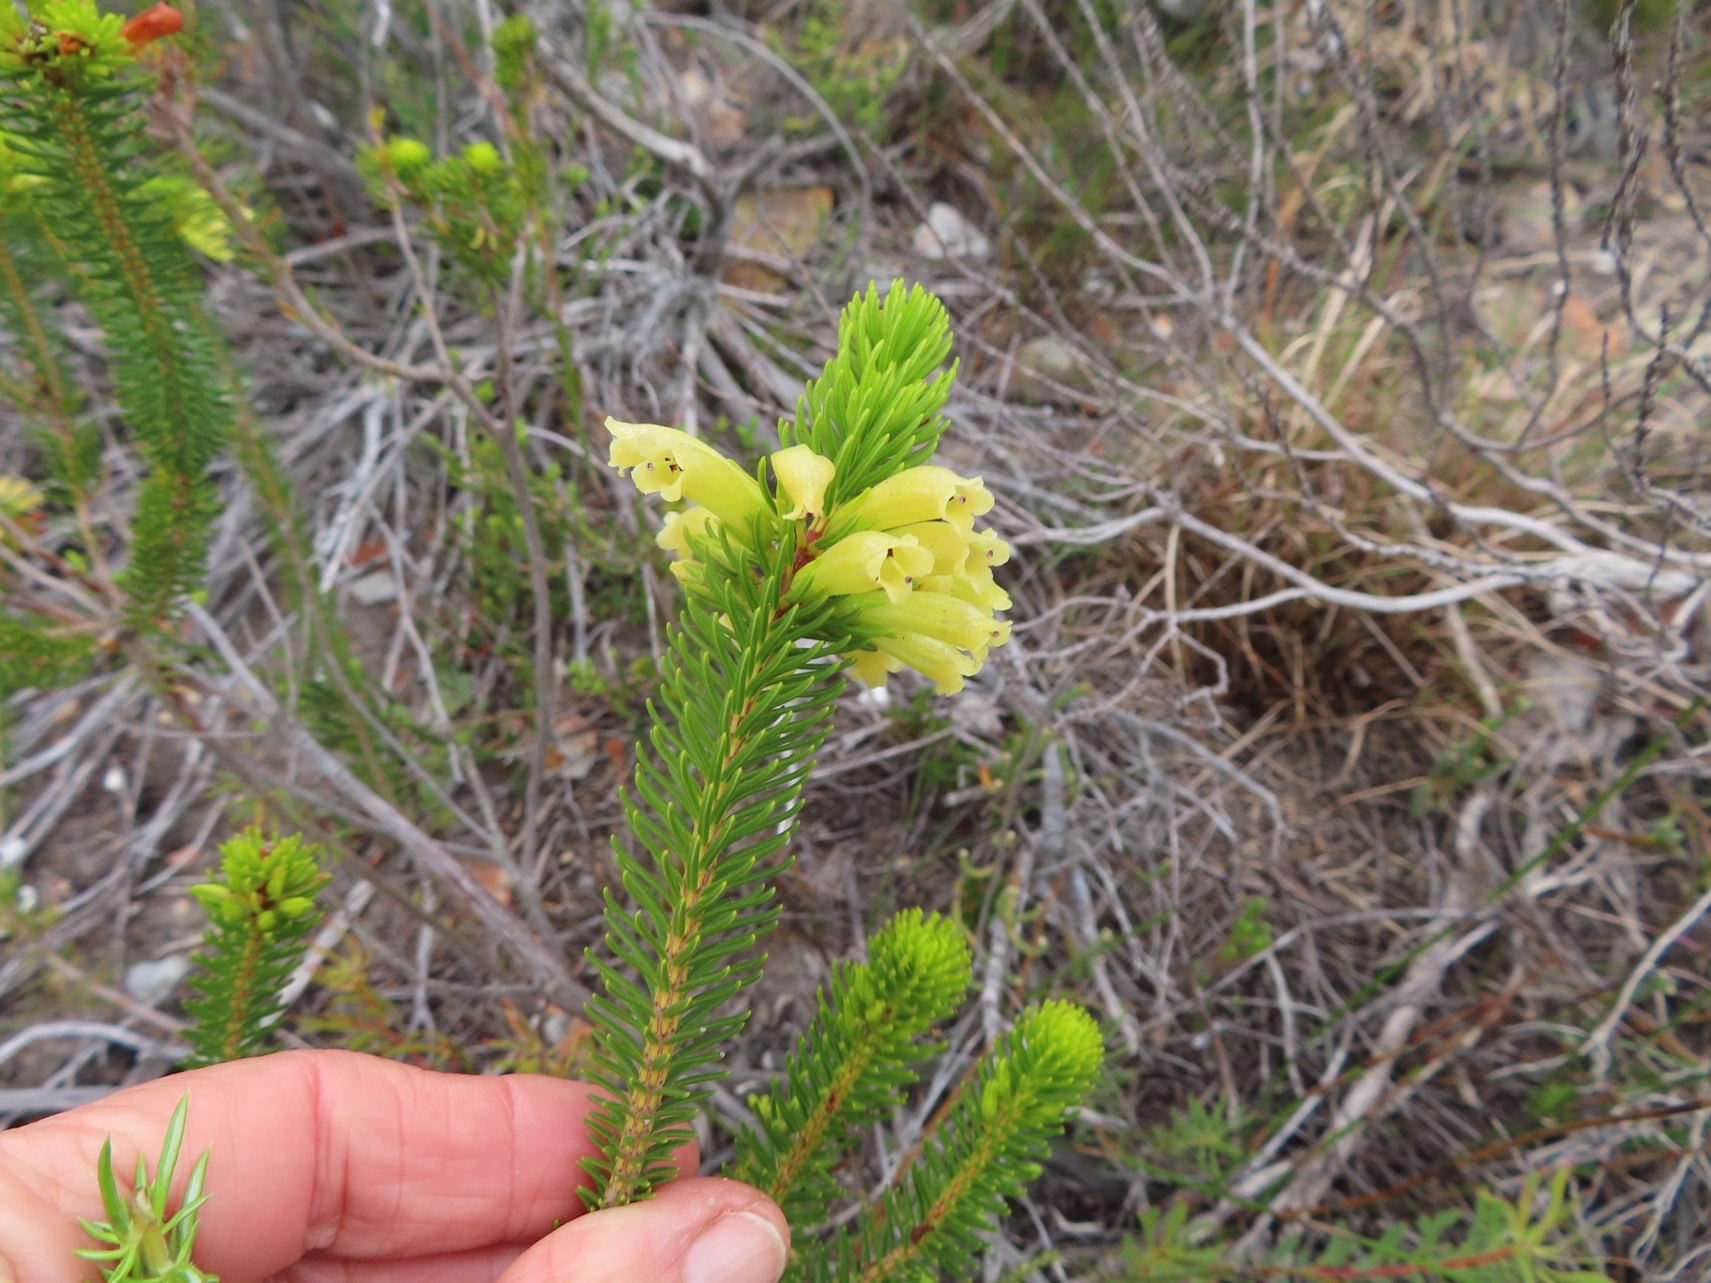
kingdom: Plantae
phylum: Tracheophyta
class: Magnoliopsida
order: Ericales
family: Ericaceae
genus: Erica
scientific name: Erica viscaria
